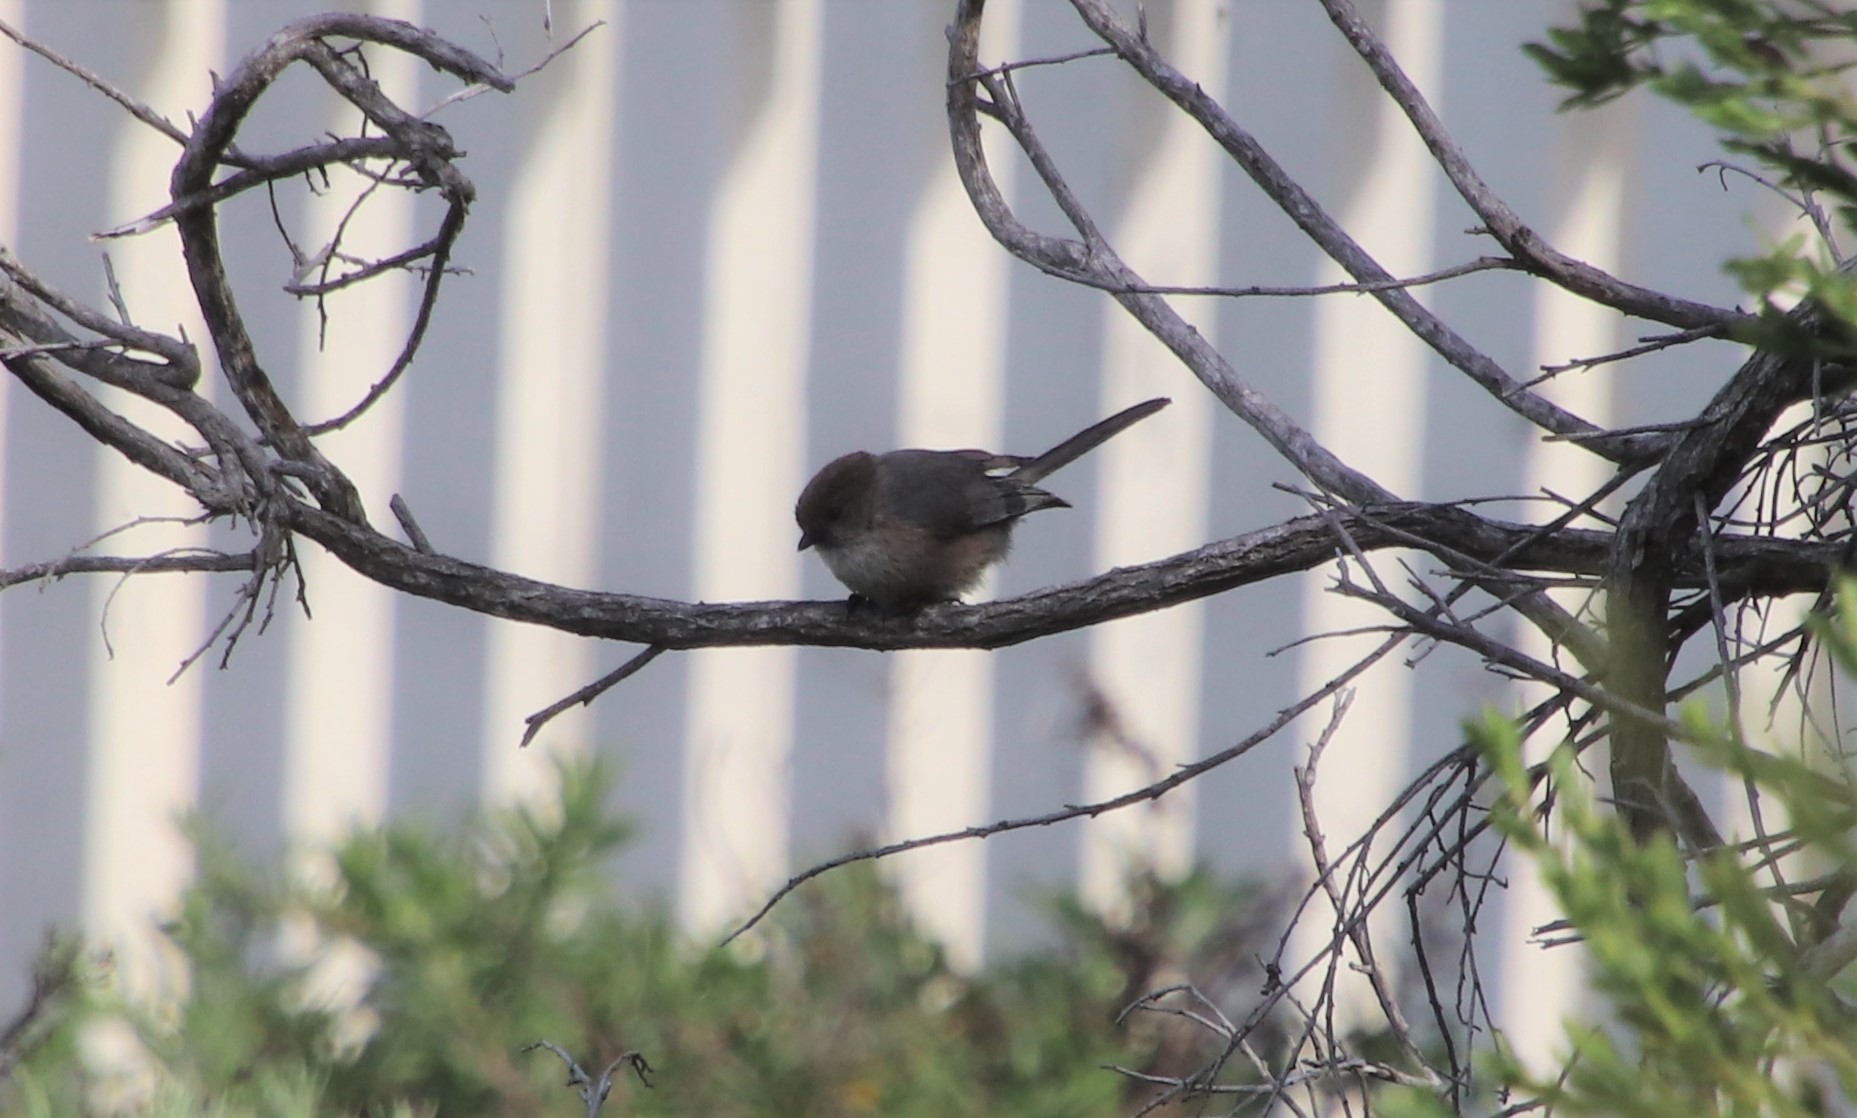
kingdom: Animalia
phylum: Chordata
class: Aves
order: Passeriformes
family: Aegithalidae
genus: Psaltriparus
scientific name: Psaltriparus minimus
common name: American bushtit
